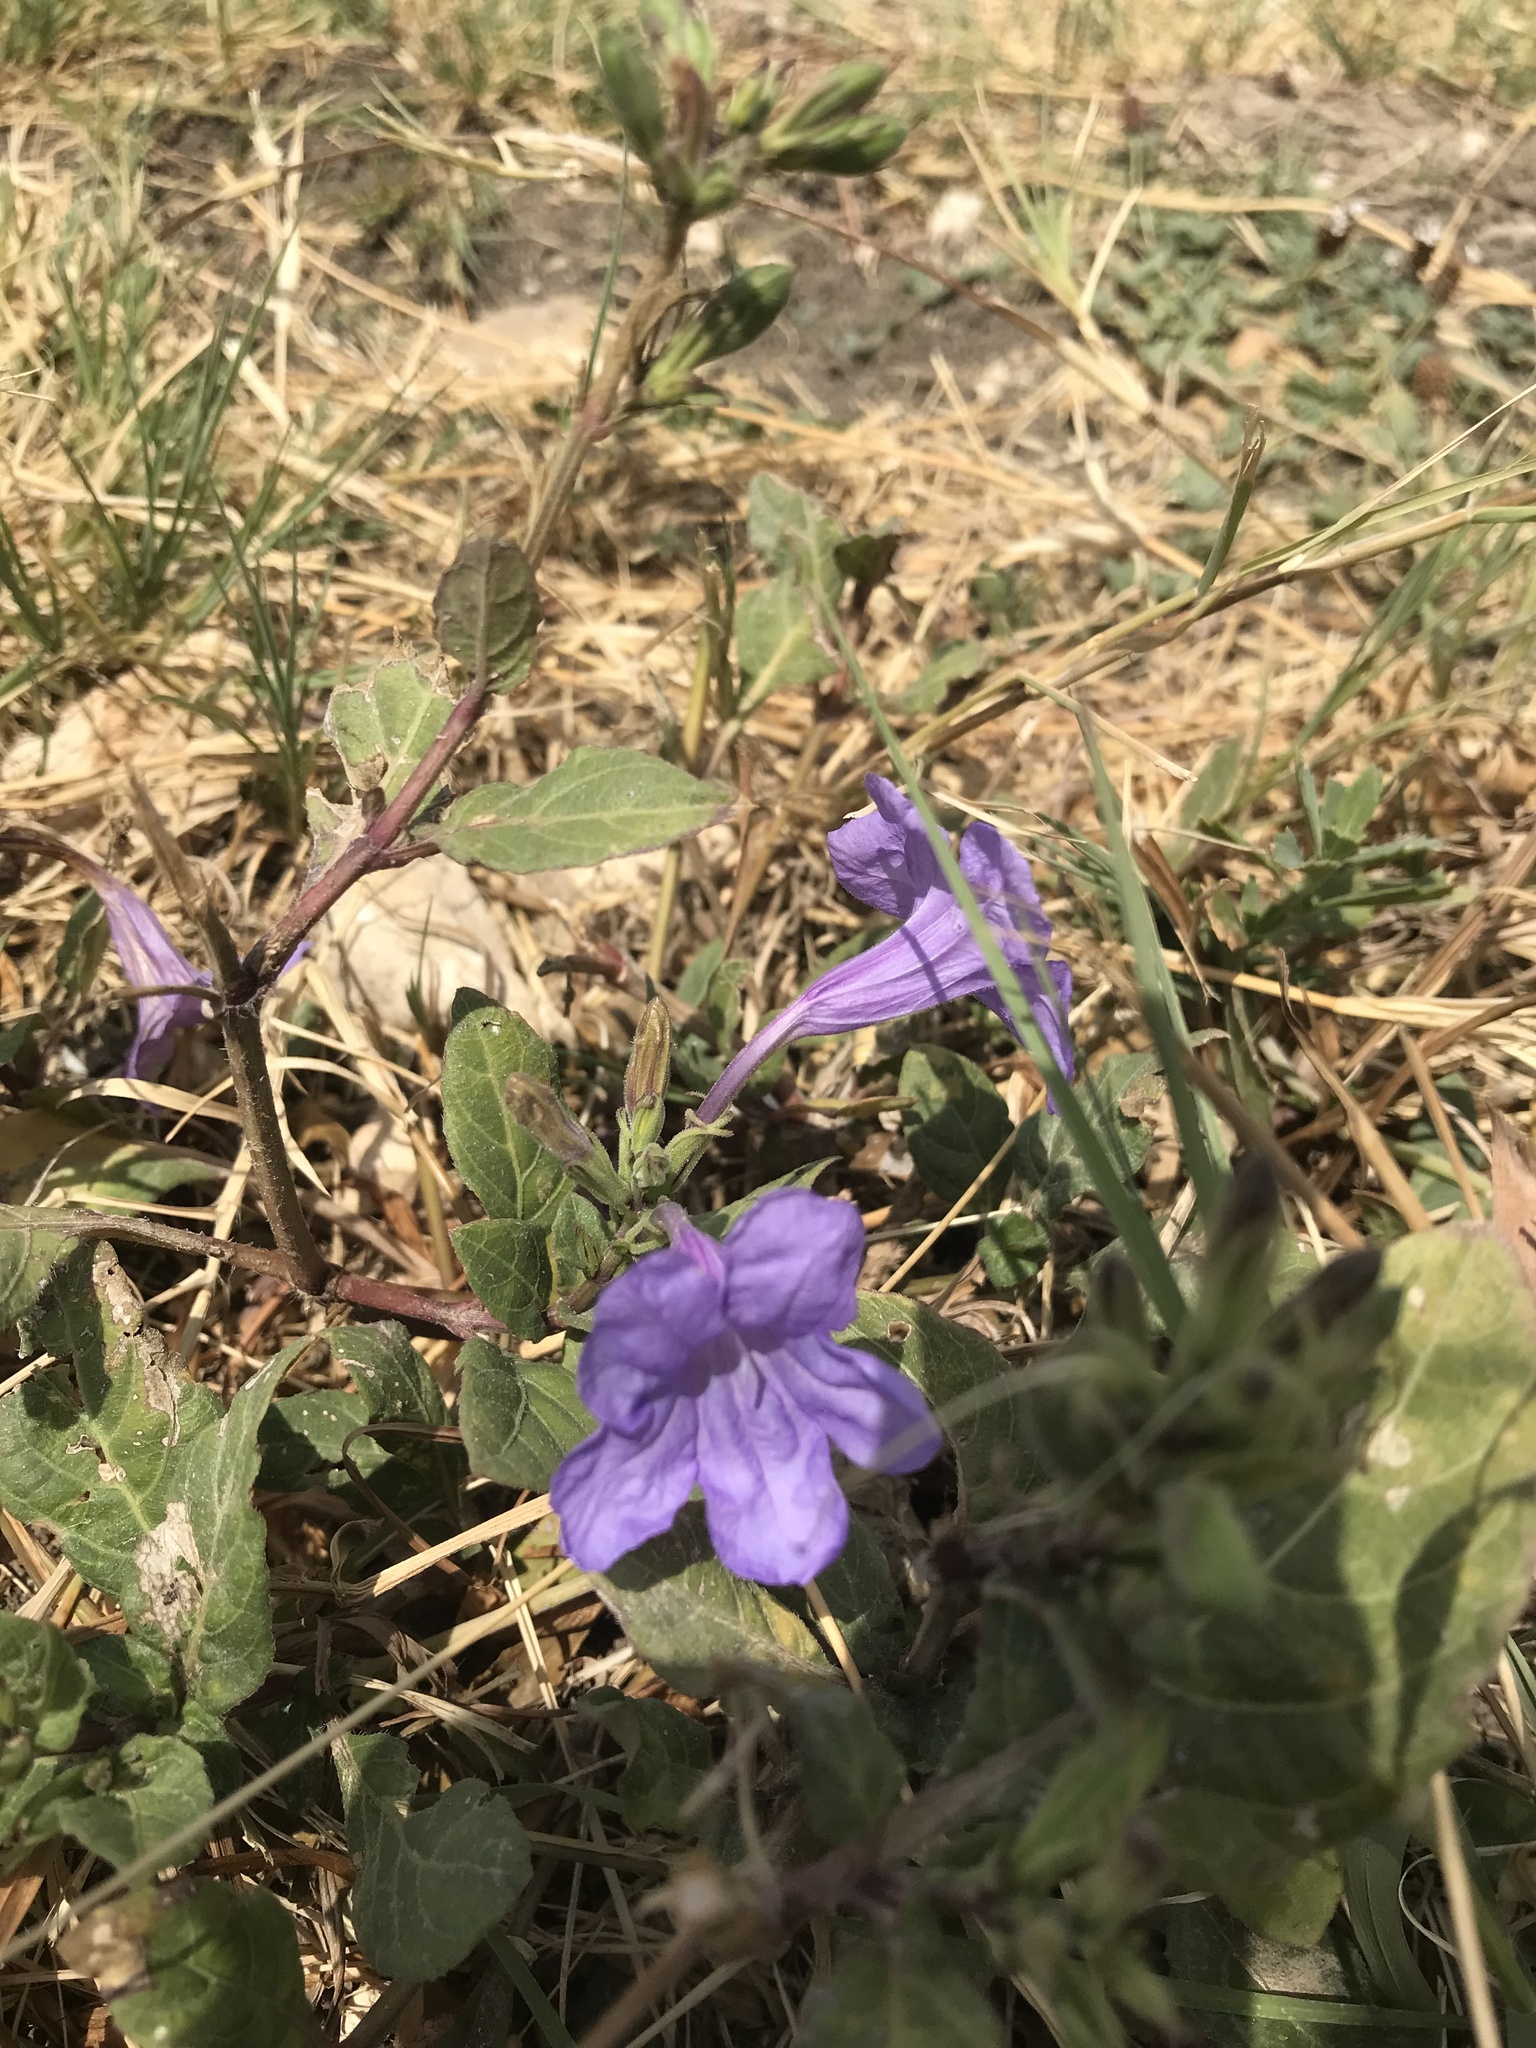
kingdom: Plantae
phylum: Tracheophyta
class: Magnoliopsida
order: Lamiales
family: Acanthaceae
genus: Ruellia
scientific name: Ruellia ciliatiflora
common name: Hairyflower wild petunia
